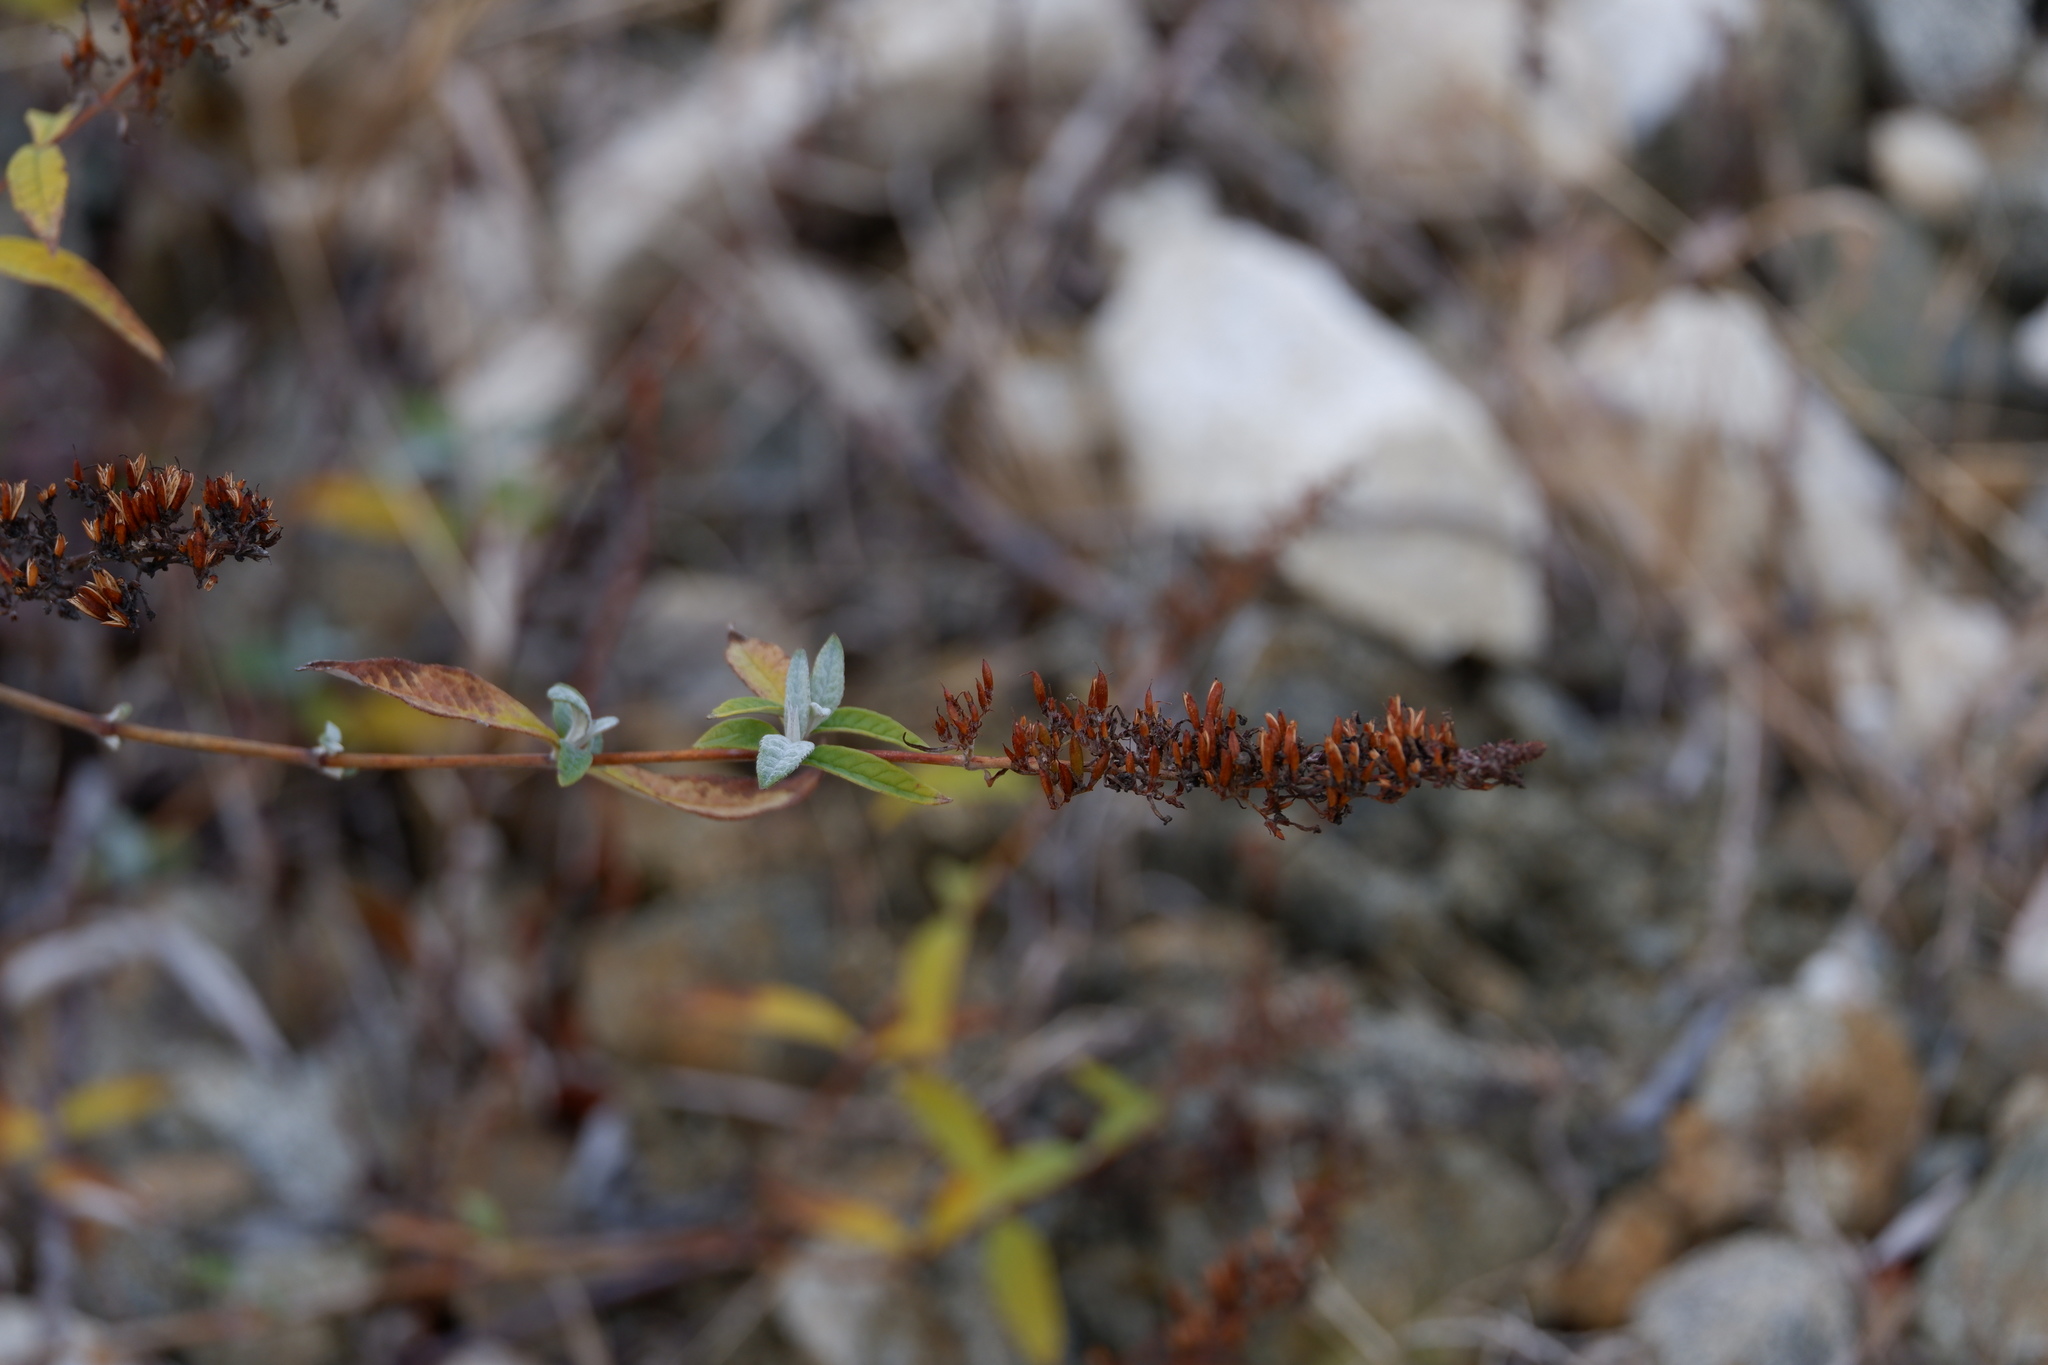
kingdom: Plantae
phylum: Tracheophyta
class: Magnoliopsida
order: Lamiales
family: Scrophulariaceae
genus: Buddleja
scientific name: Buddleja davidii
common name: Butterfly-bush
